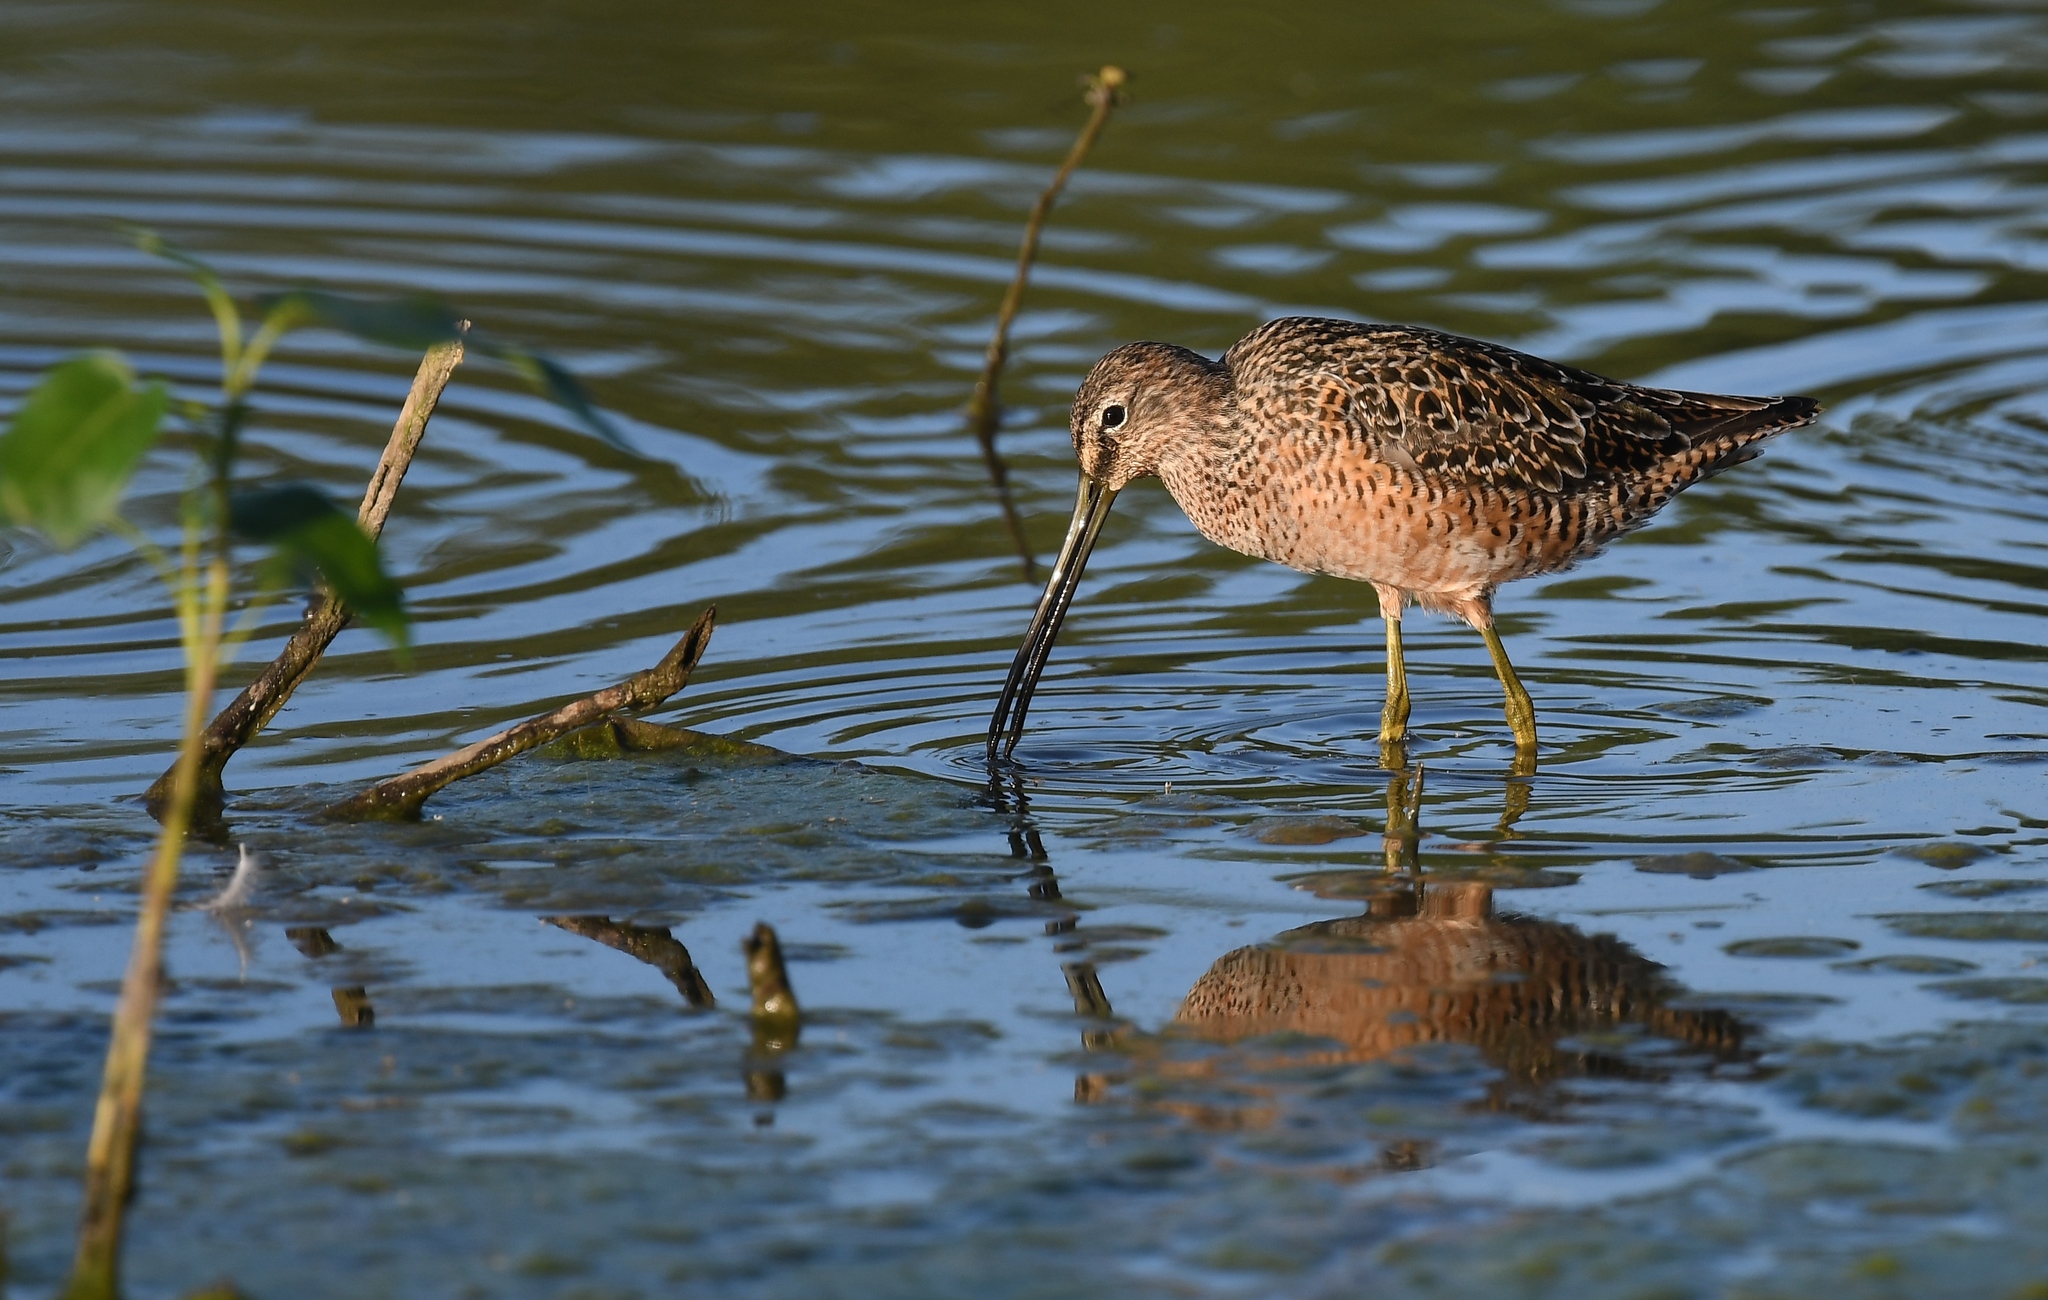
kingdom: Animalia
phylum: Chordata
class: Aves
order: Charadriiformes
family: Scolopacidae
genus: Limnodromus
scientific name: Limnodromus scolopaceus
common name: Long-billed dowitcher
